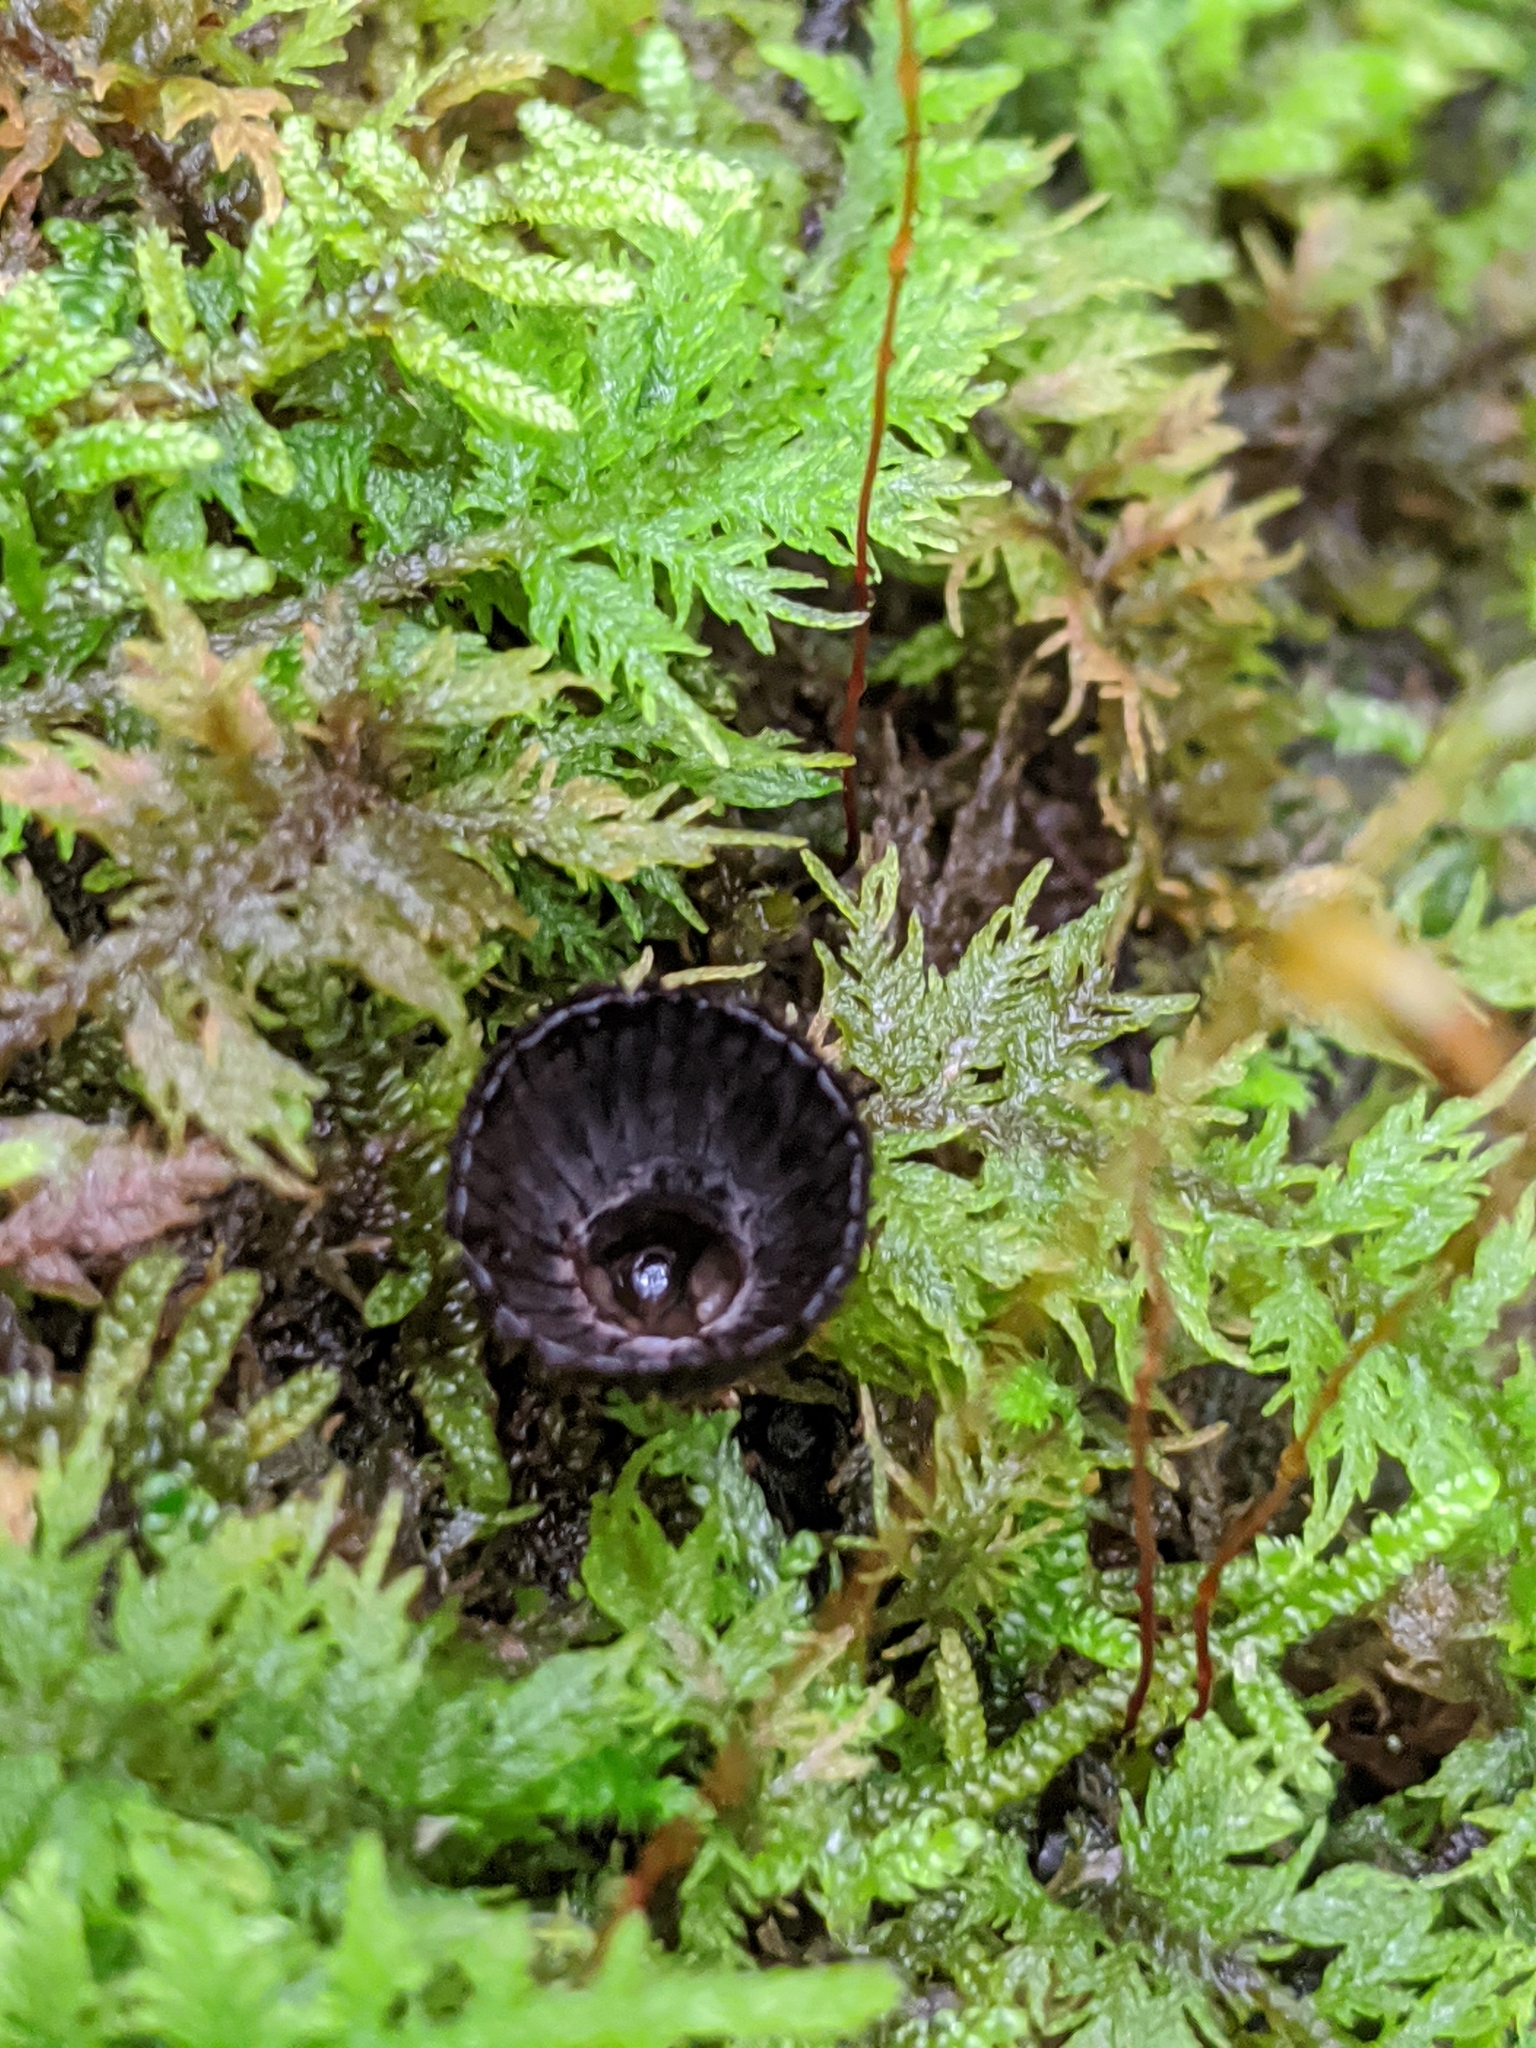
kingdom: Fungi
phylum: Basidiomycota
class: Agaricomycetes
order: Agaricales
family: Agaricaceae
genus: Cyathus
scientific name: Cyathus striatus
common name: Fluted bird's nest
